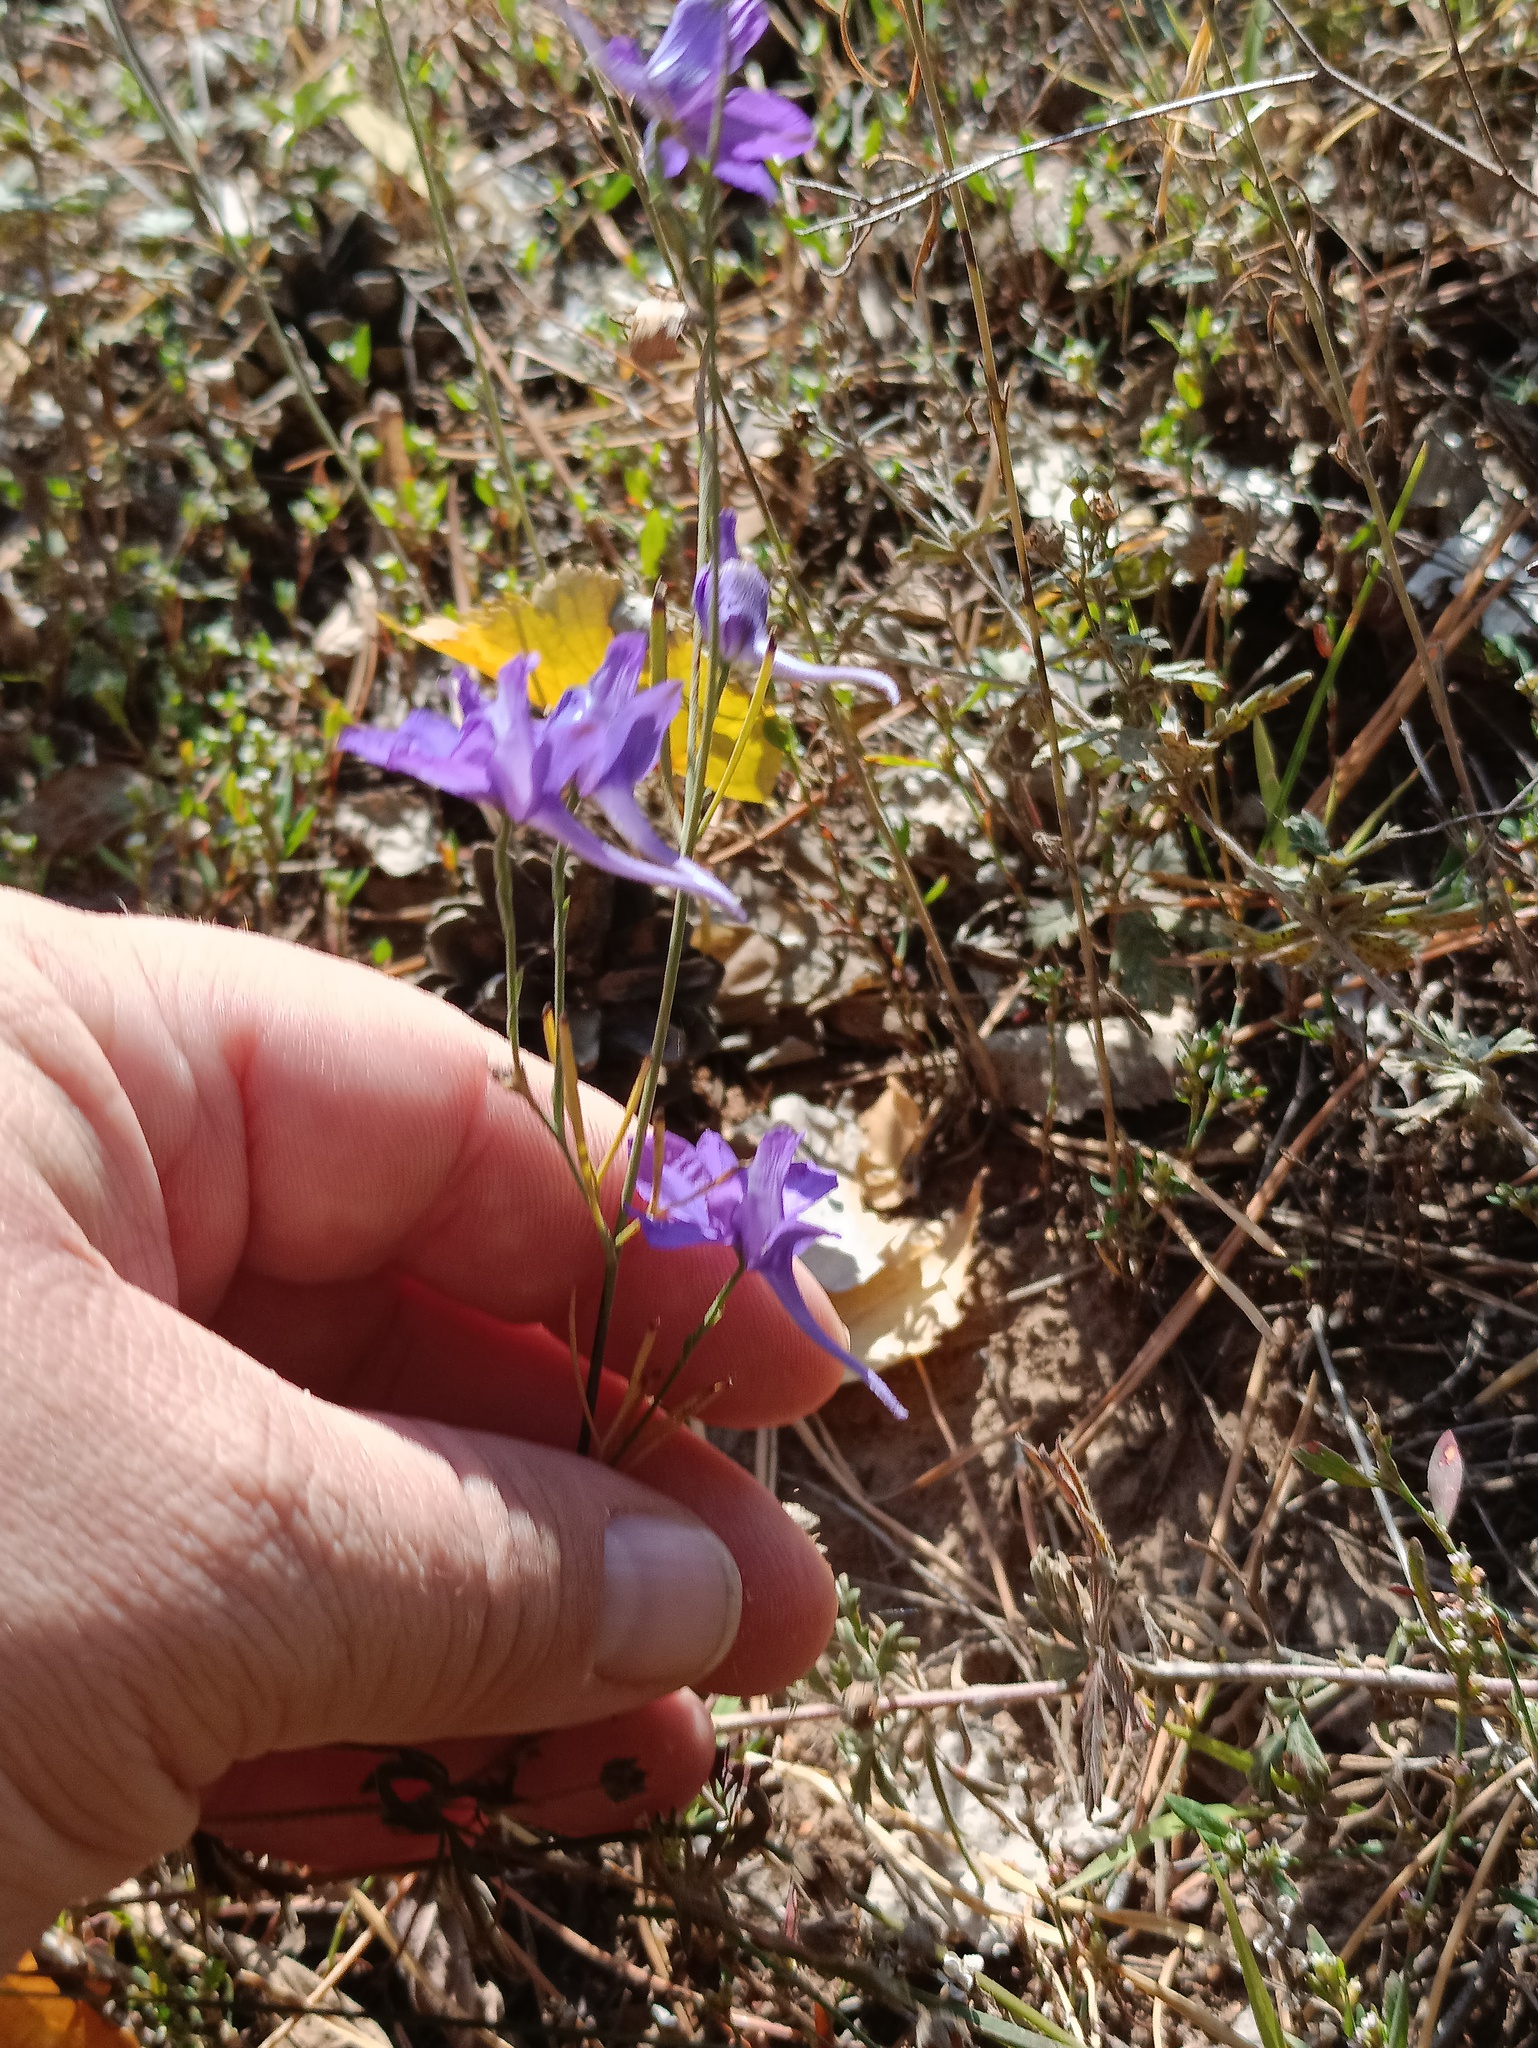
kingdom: Plantae
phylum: Tracheophyta
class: Magnoliopsida
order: Ranunculales
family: Ranunculaceae
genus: Delphinium
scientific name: Delphinium consolida
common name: Branching larkspur
